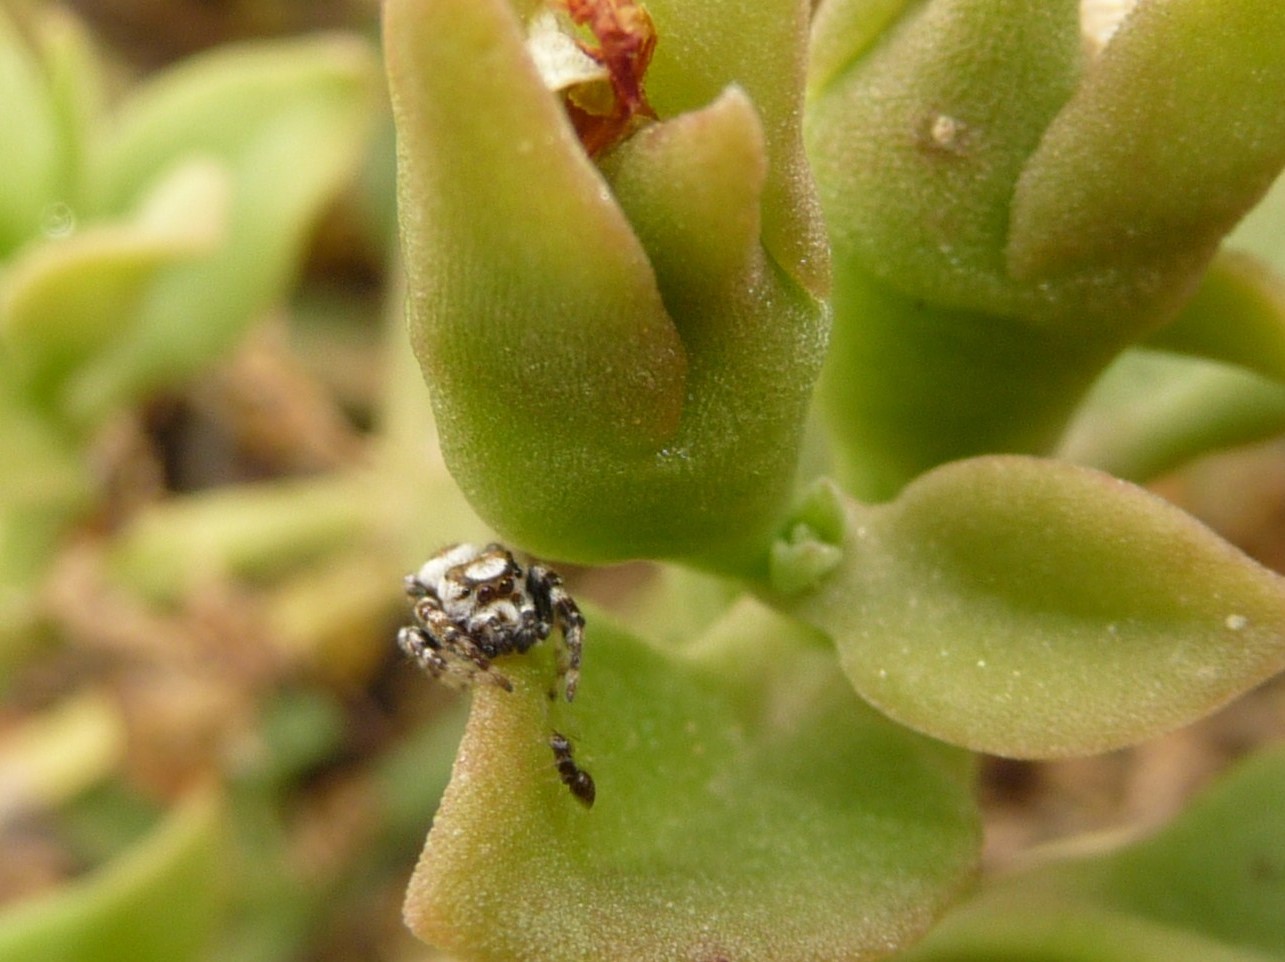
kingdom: Animalia
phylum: Arthropoda
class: Arachnida
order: Araneae
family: Salticidae
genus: Metaphidippus
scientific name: Metaphidippus chera
